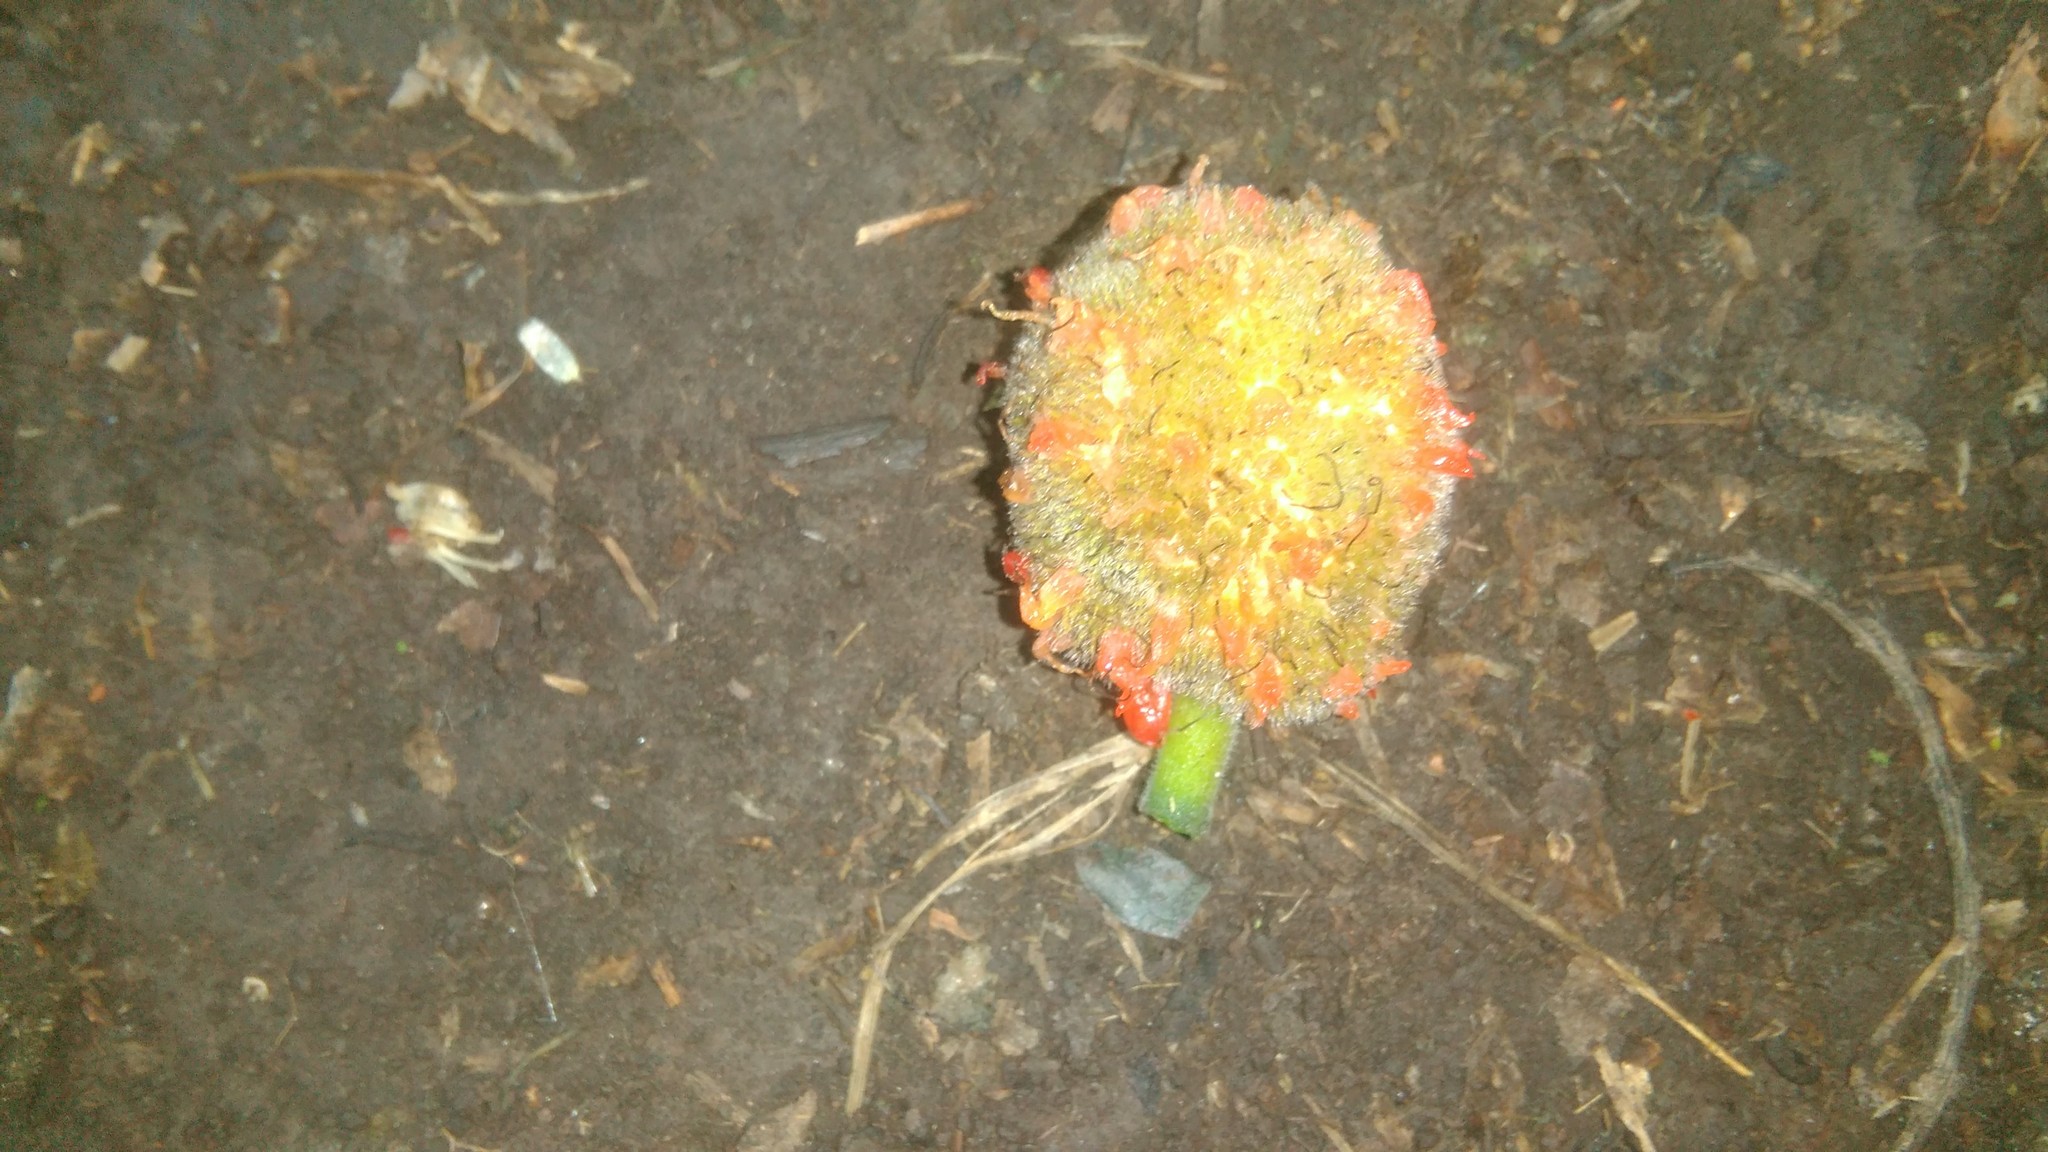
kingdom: Plantae
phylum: Tracheophyta
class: Magnoliopsida
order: Rosales
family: Moraceae
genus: Broussonetia
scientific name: Broussonetia papyrifera
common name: Paper mulberry
